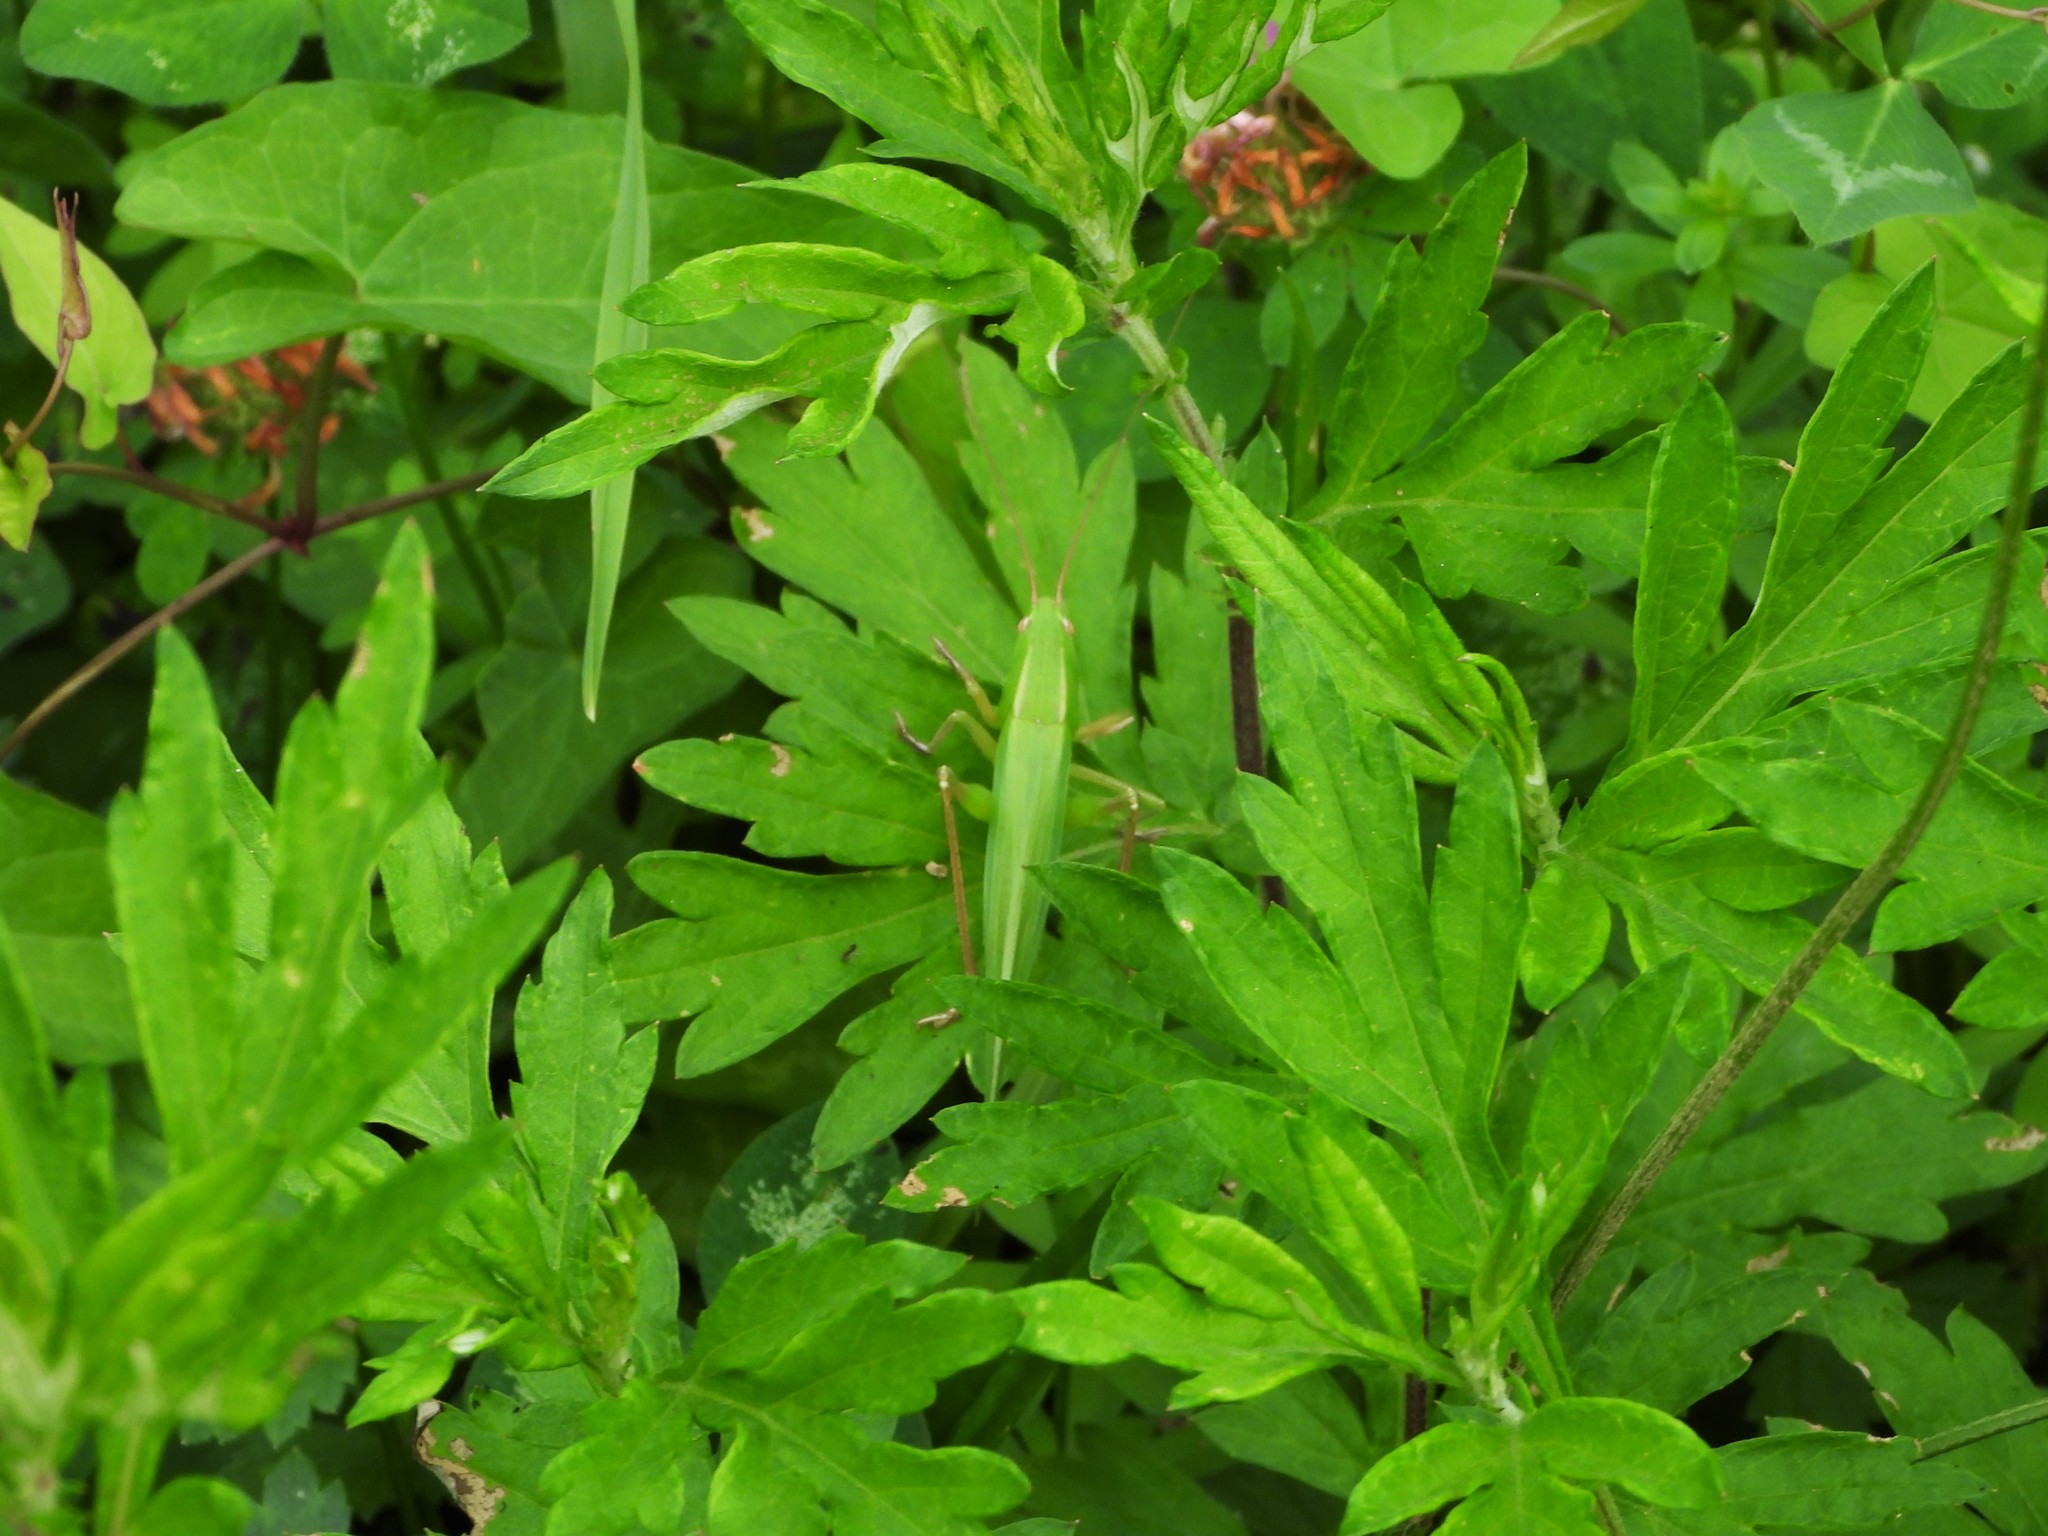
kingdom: Animalia
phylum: Arthropoda
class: Insecta
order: Orthoptera
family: Tettigoniidae
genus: Ruspolia
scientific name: Ruspolia nitidula
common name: Large conehead
